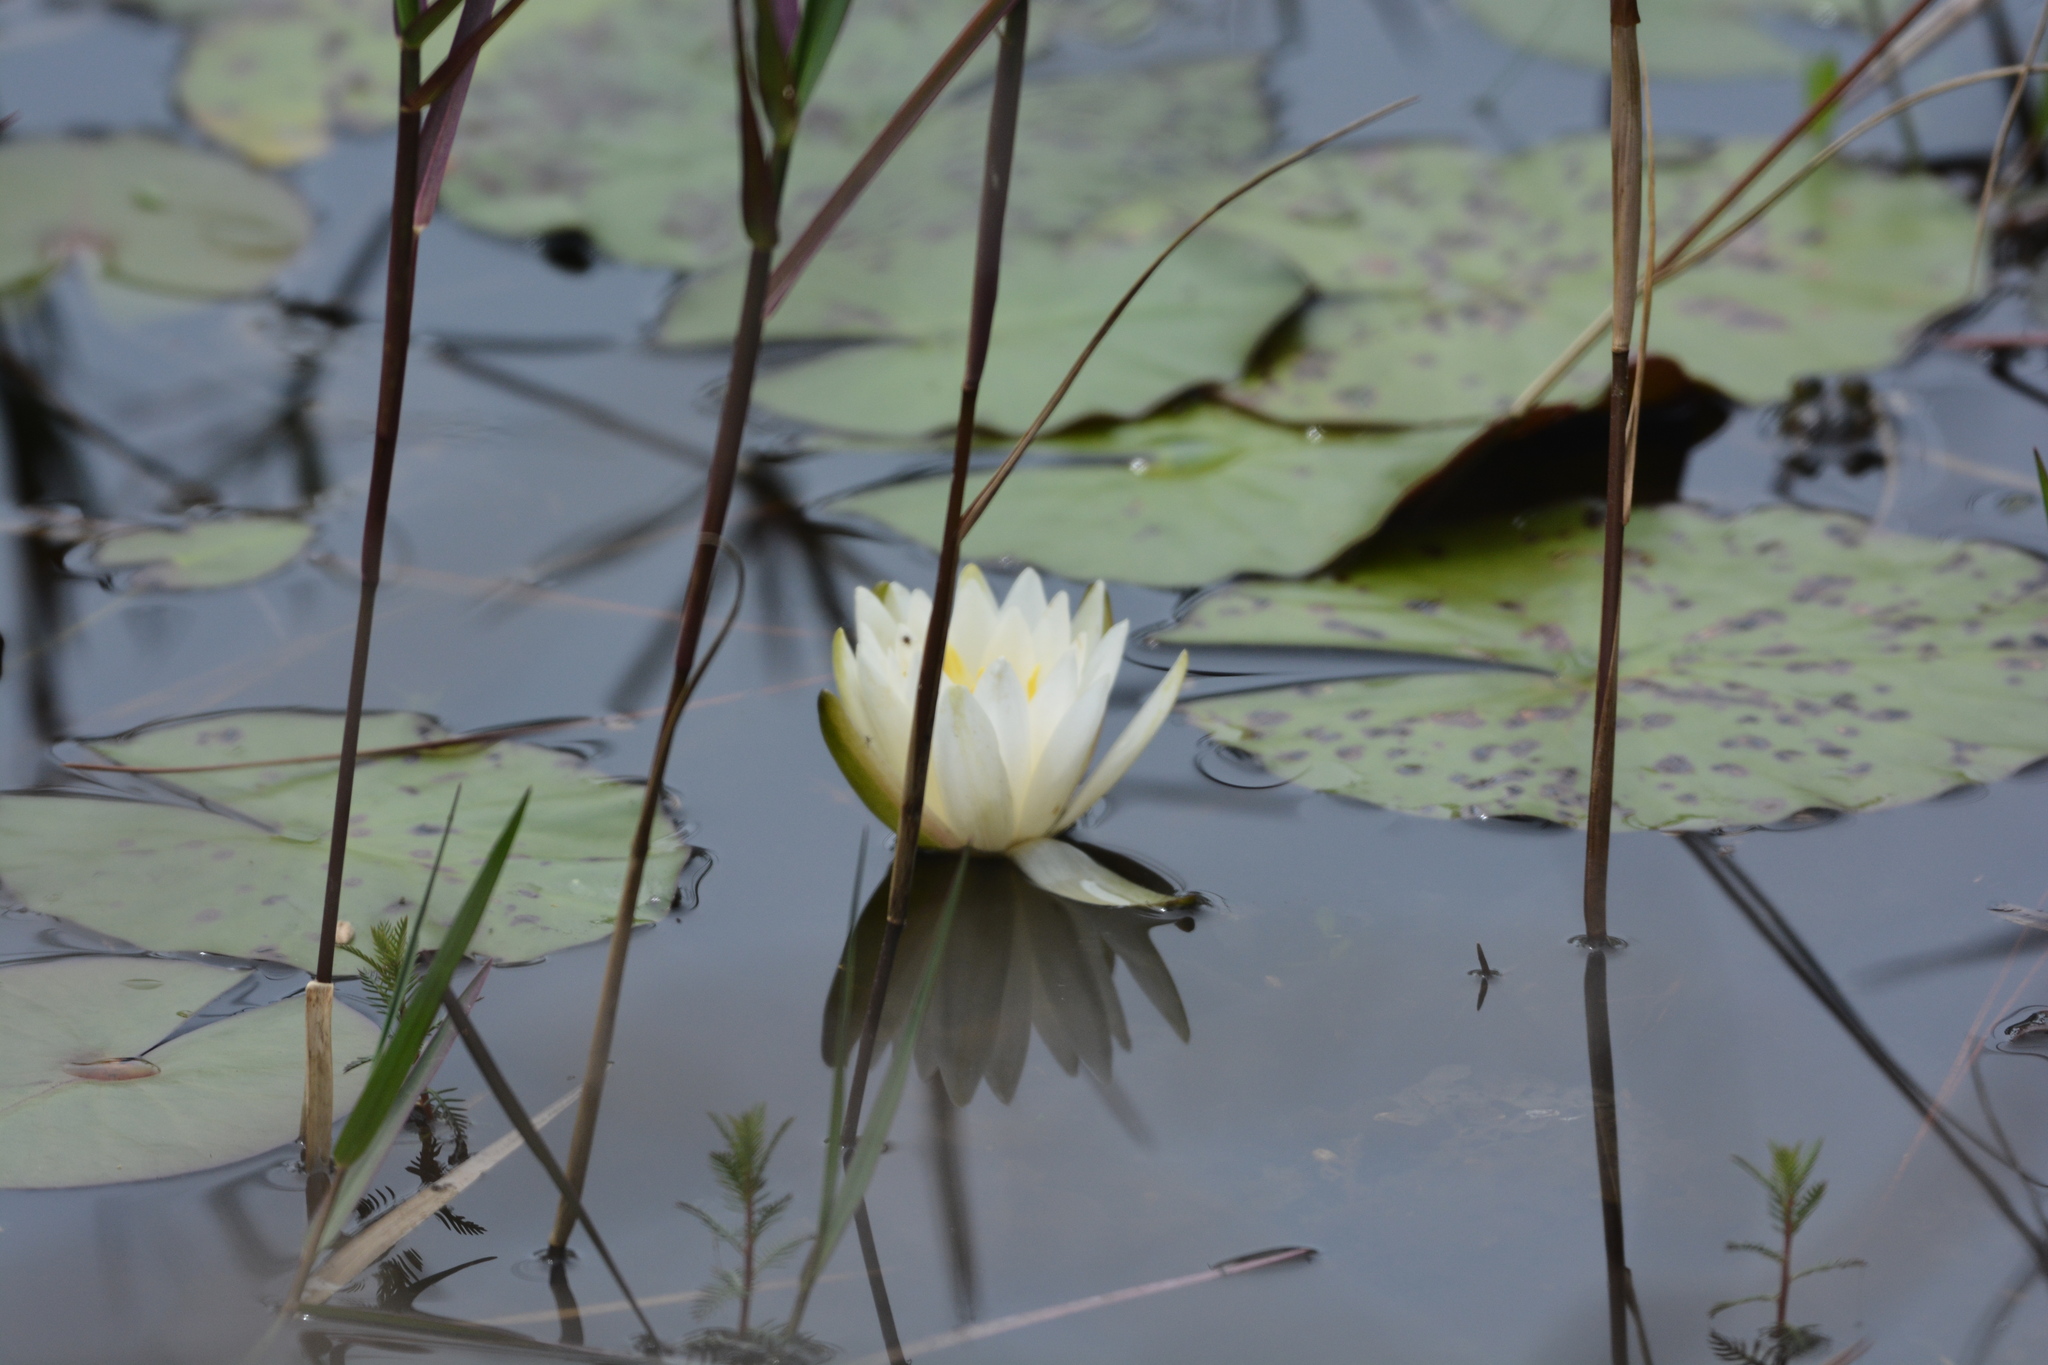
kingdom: Plantae
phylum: Tracheophyta
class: Magnoliopsida
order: Nymphaeales
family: Nymphaeaceae
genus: Nymphaea
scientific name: Nymphaea odorata
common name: Fragrant water-lily
